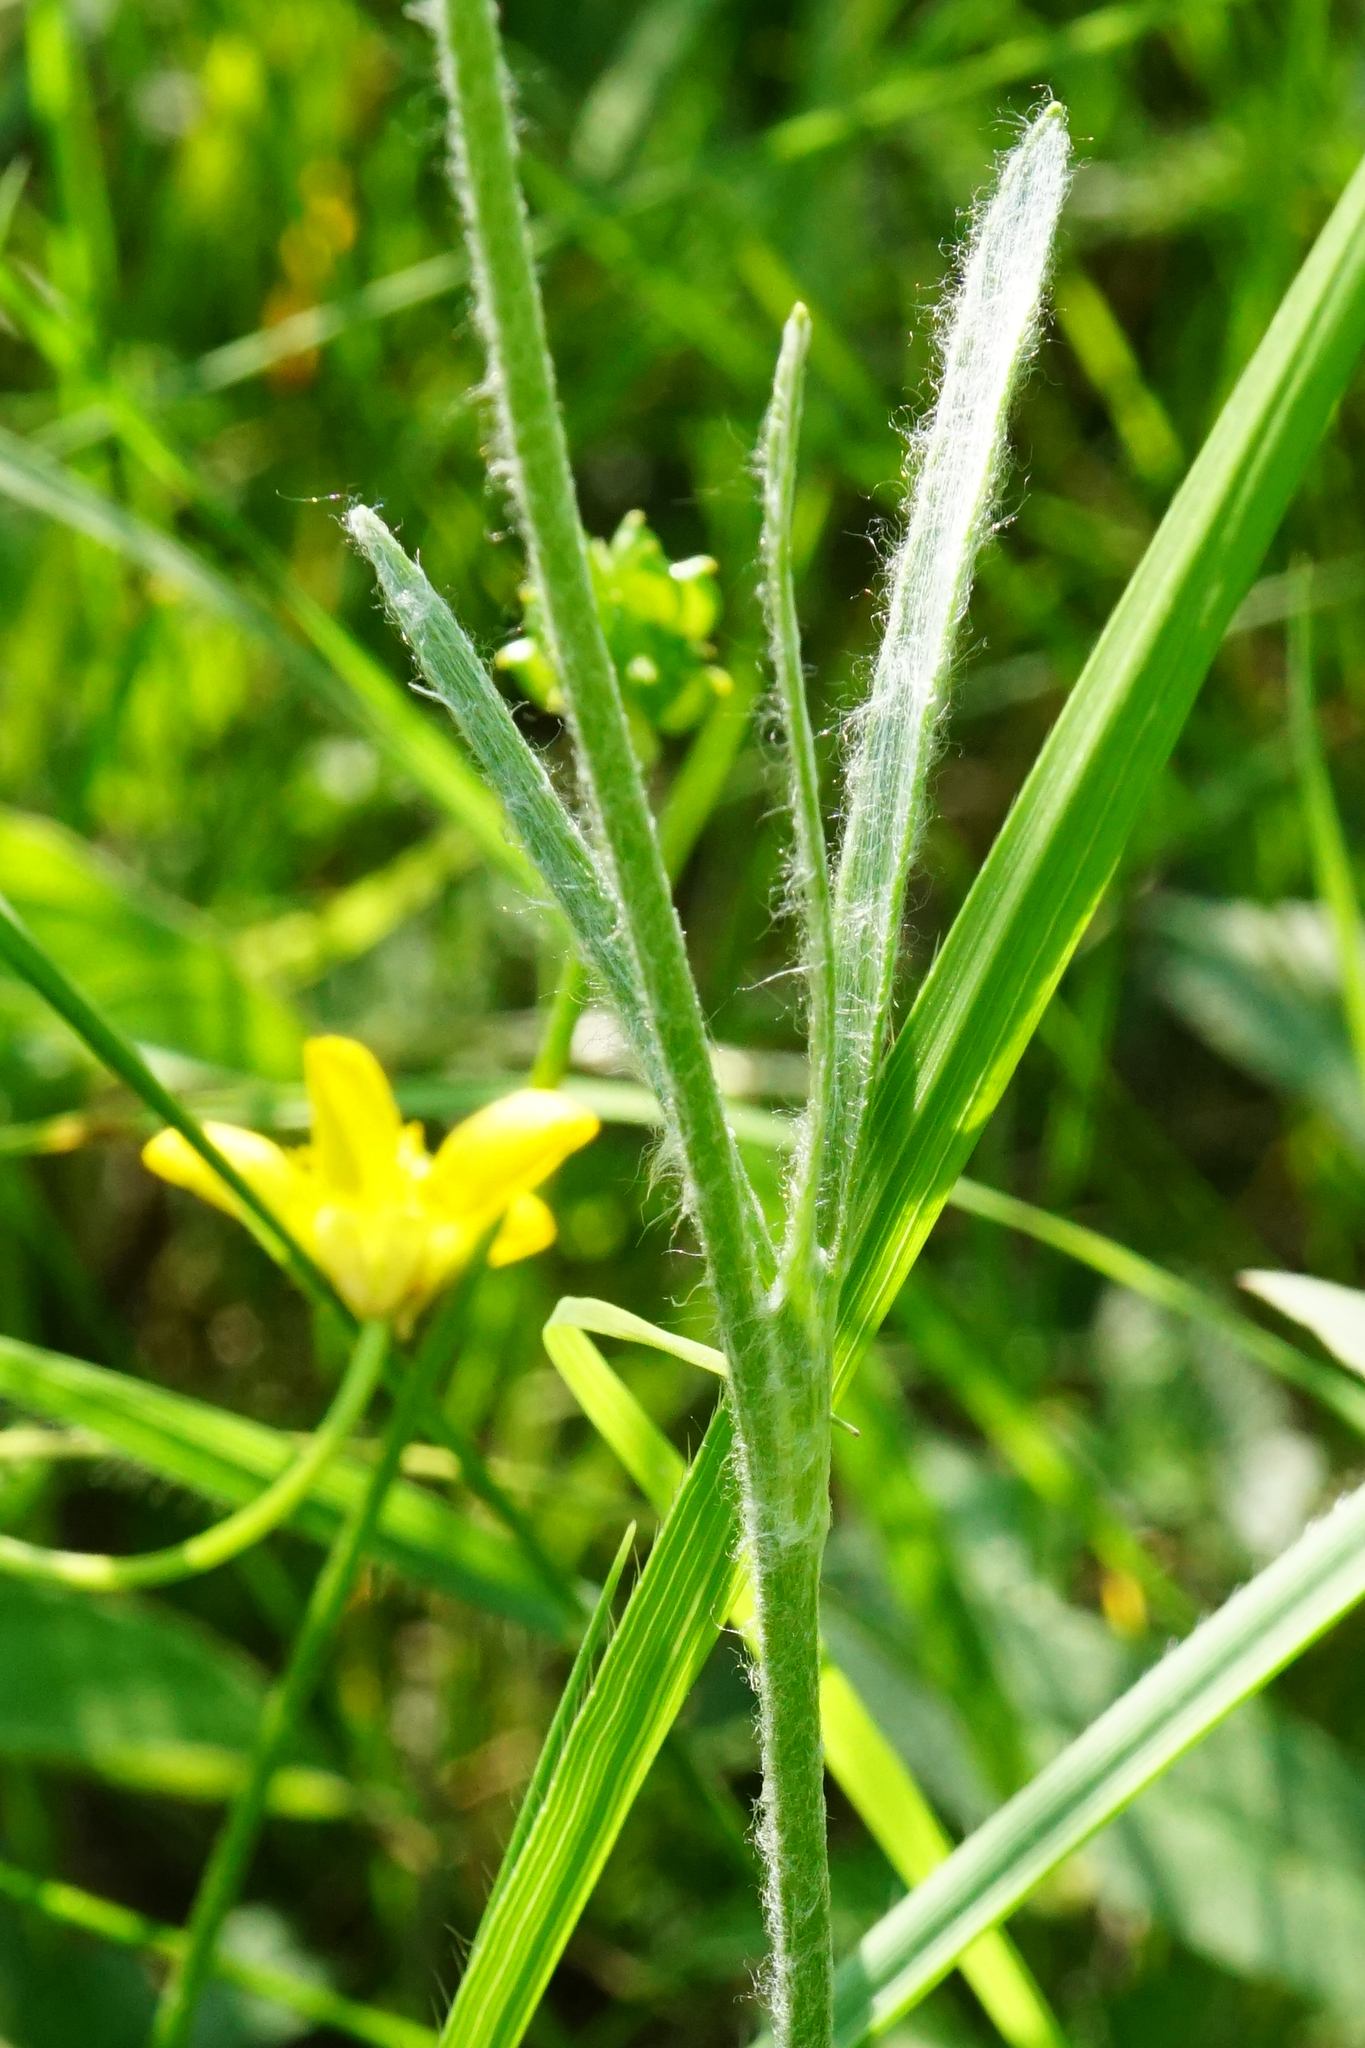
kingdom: Plantae
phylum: Tracheophyta
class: Magnoliopsida
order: Ranunculales
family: Ranunculaceae
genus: Ranunculus
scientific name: Ranunculus illyricus
